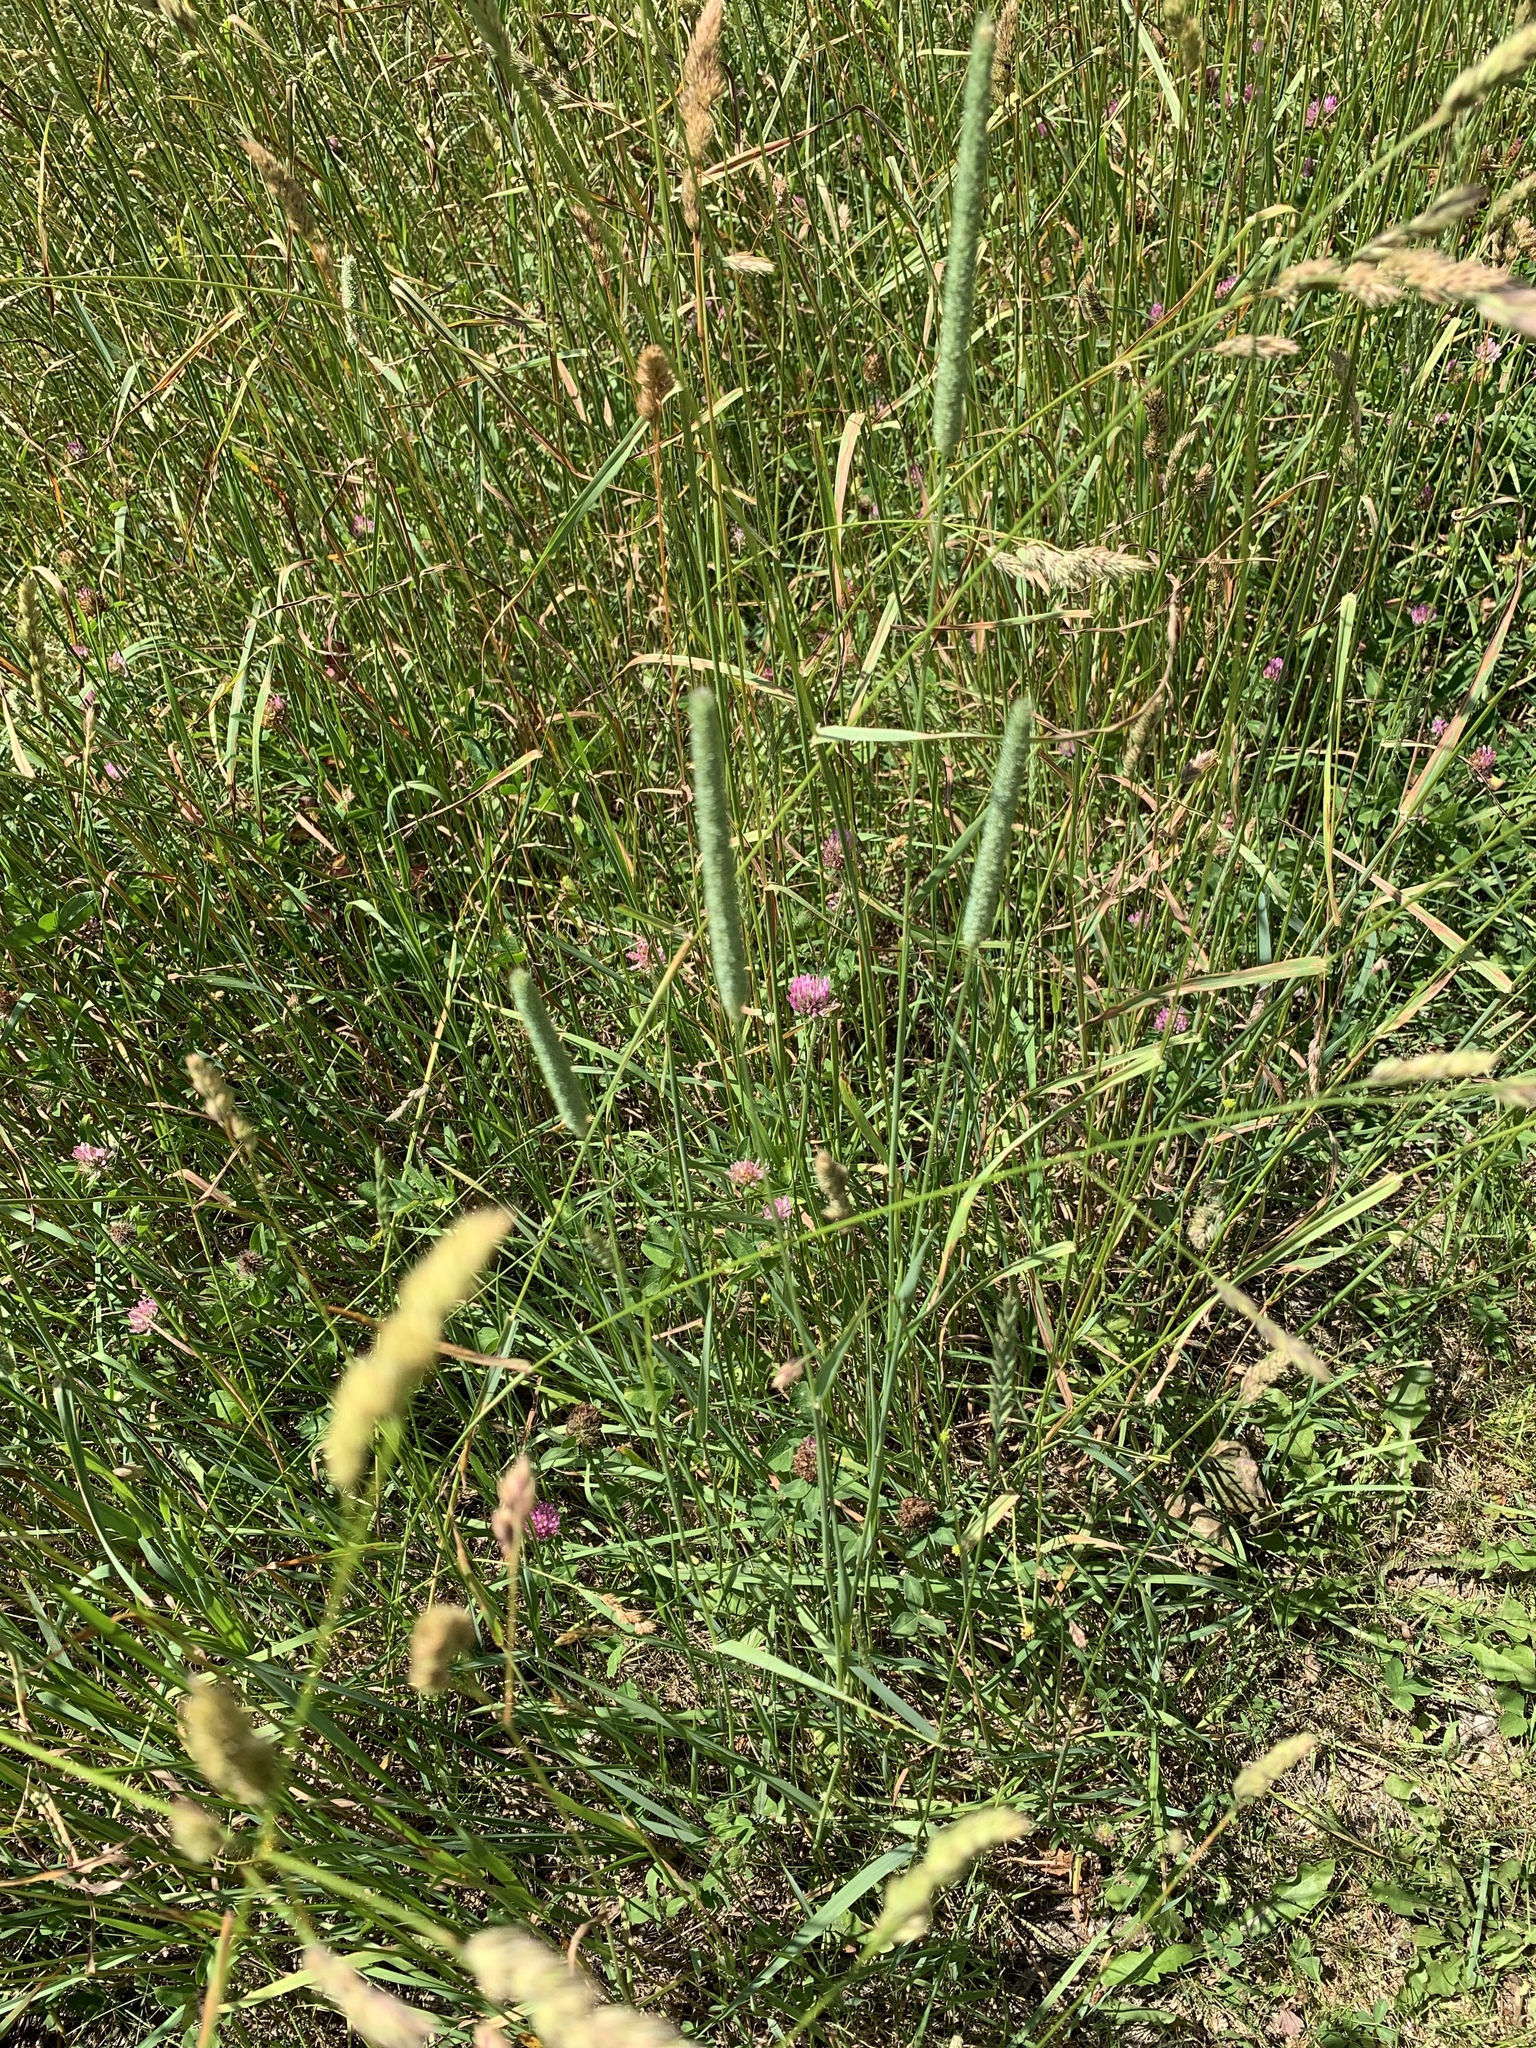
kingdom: Plantae
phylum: Tracheophyta
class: Liliopsida
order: Poales
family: Poaceae
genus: Phleum
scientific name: Phleum pratense
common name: Timothy grass
